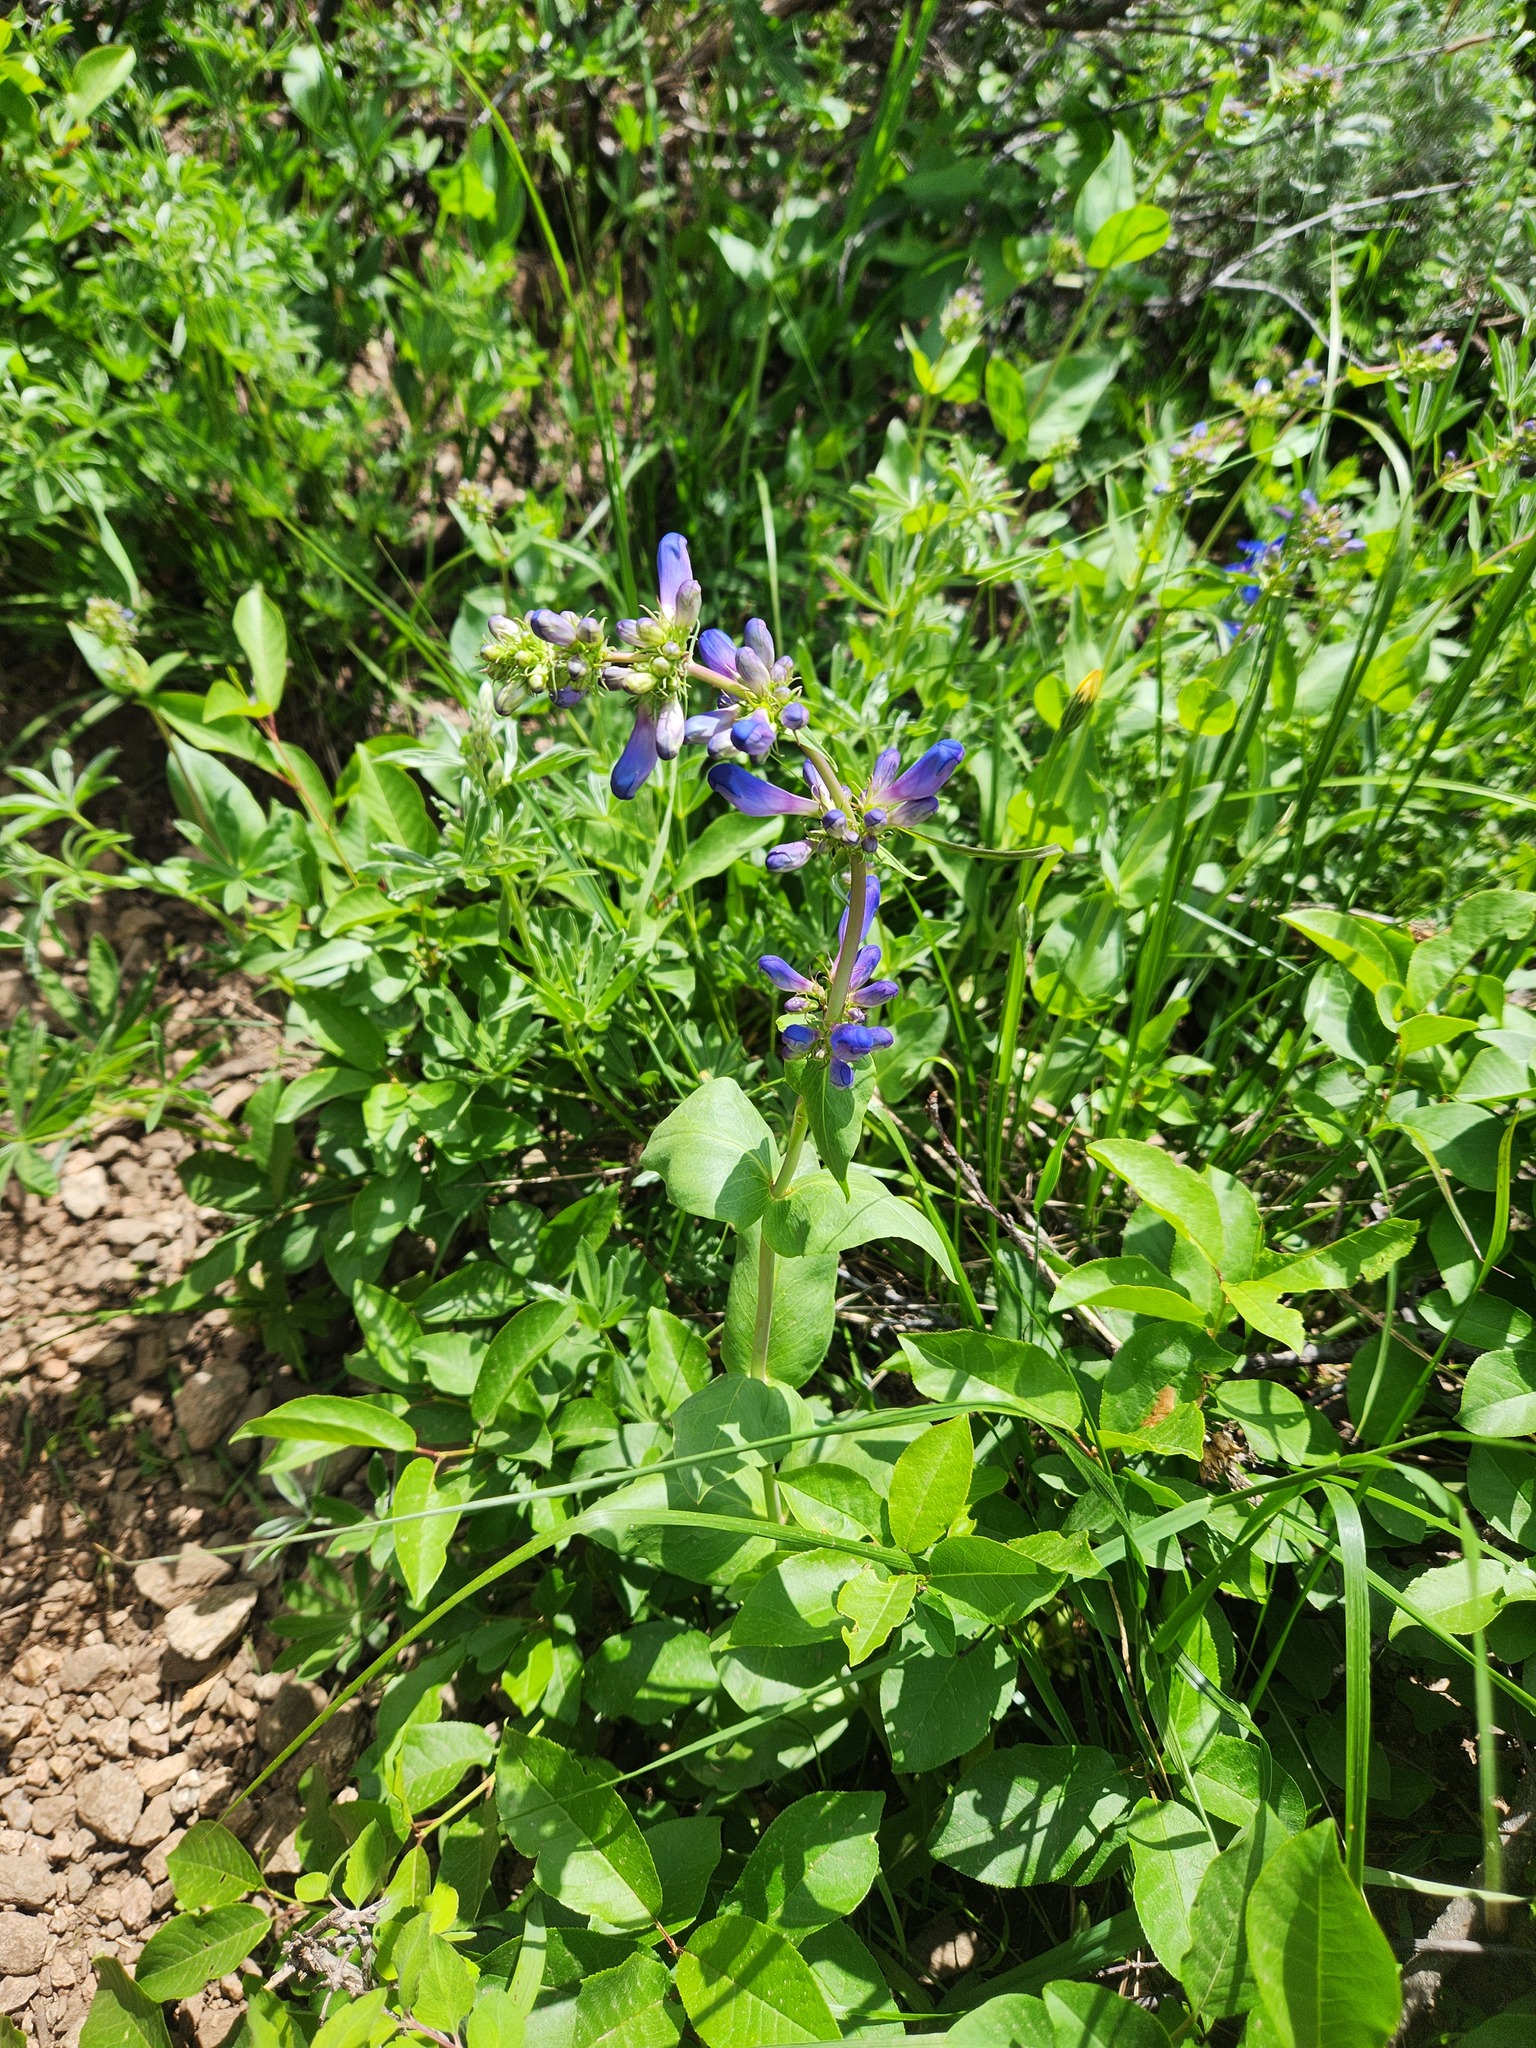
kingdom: Plantae
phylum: Tracheophyta
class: Magnoliopsida
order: Lamiales
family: Plantaginaceae
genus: Penstemon
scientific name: Penstemon cyananthus
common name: Wasatch penstemon
